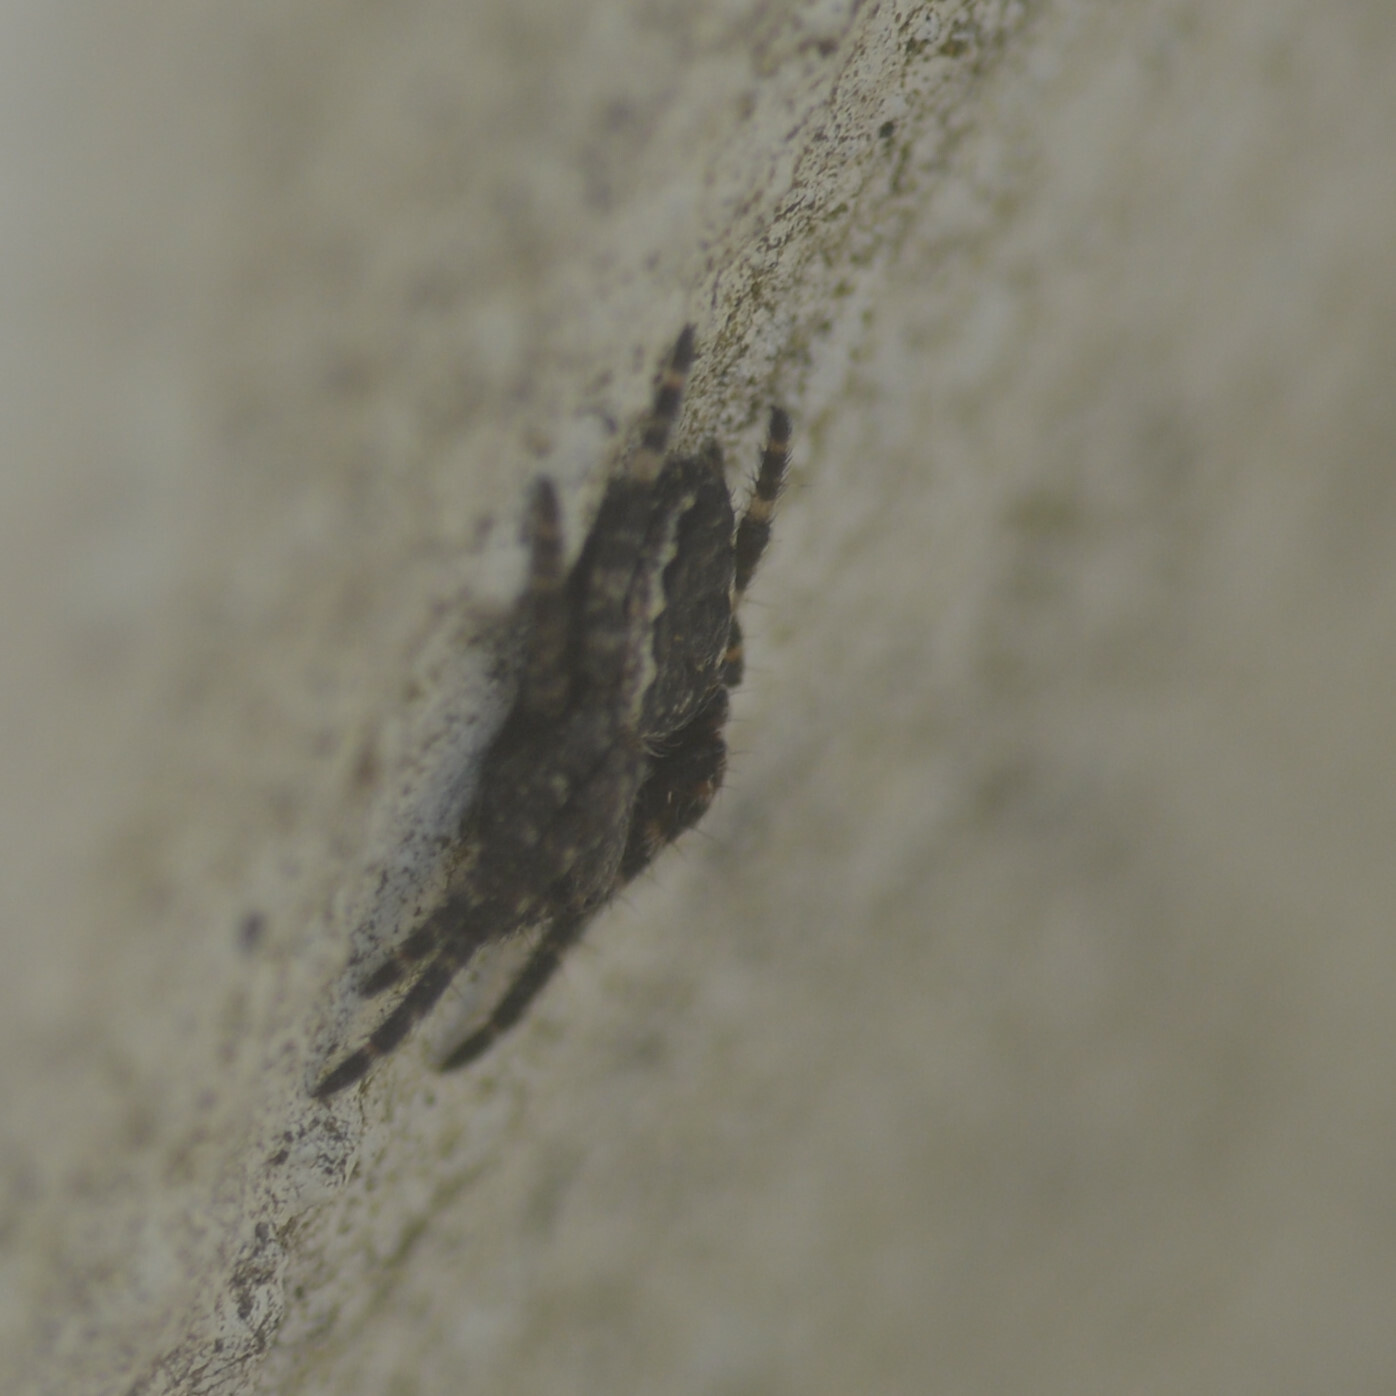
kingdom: Animalia
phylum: Arthropoda
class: Arachnida
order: Araneae
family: Araneidae
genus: Nuctenea
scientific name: Nuctenea umbratica
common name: Toad spider
